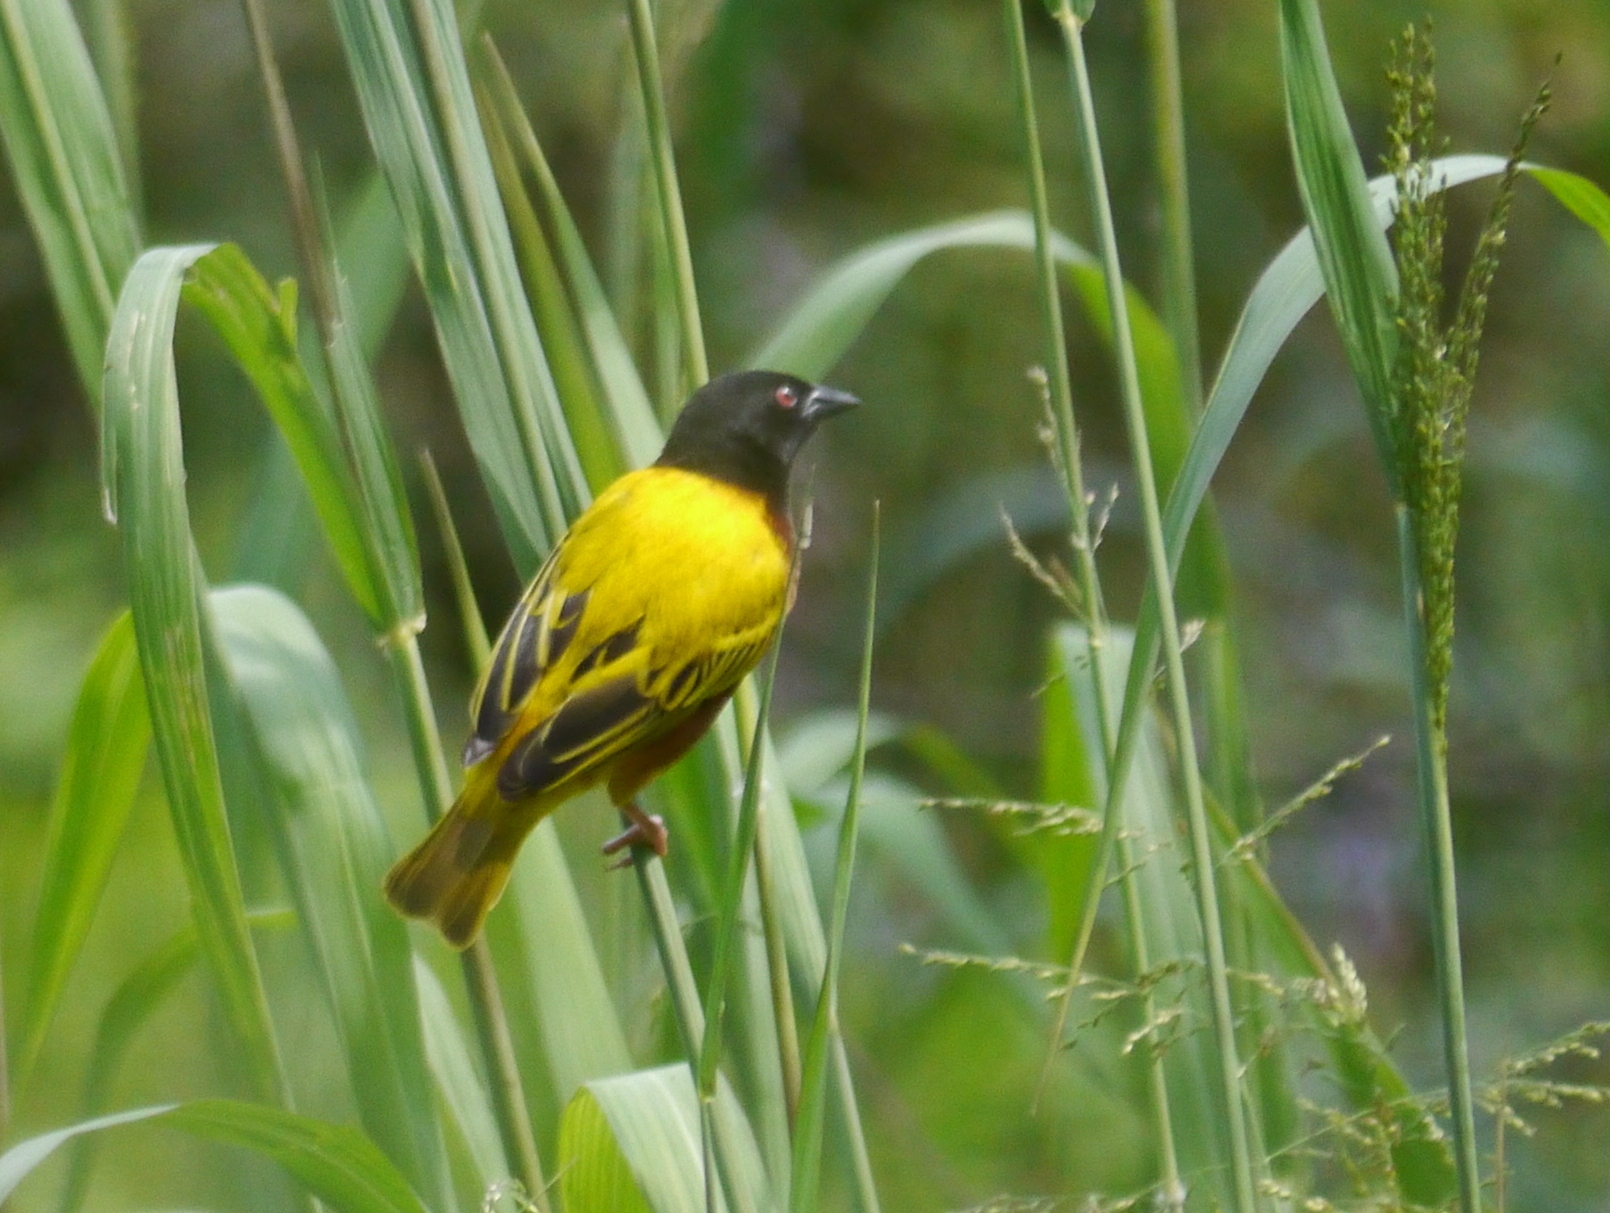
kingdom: Animalia
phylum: Chordata
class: Aves
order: Passeriformes
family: Ploceidae
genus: Ploceus
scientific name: Ploceus jacksoni
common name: Golden-backed weaver
